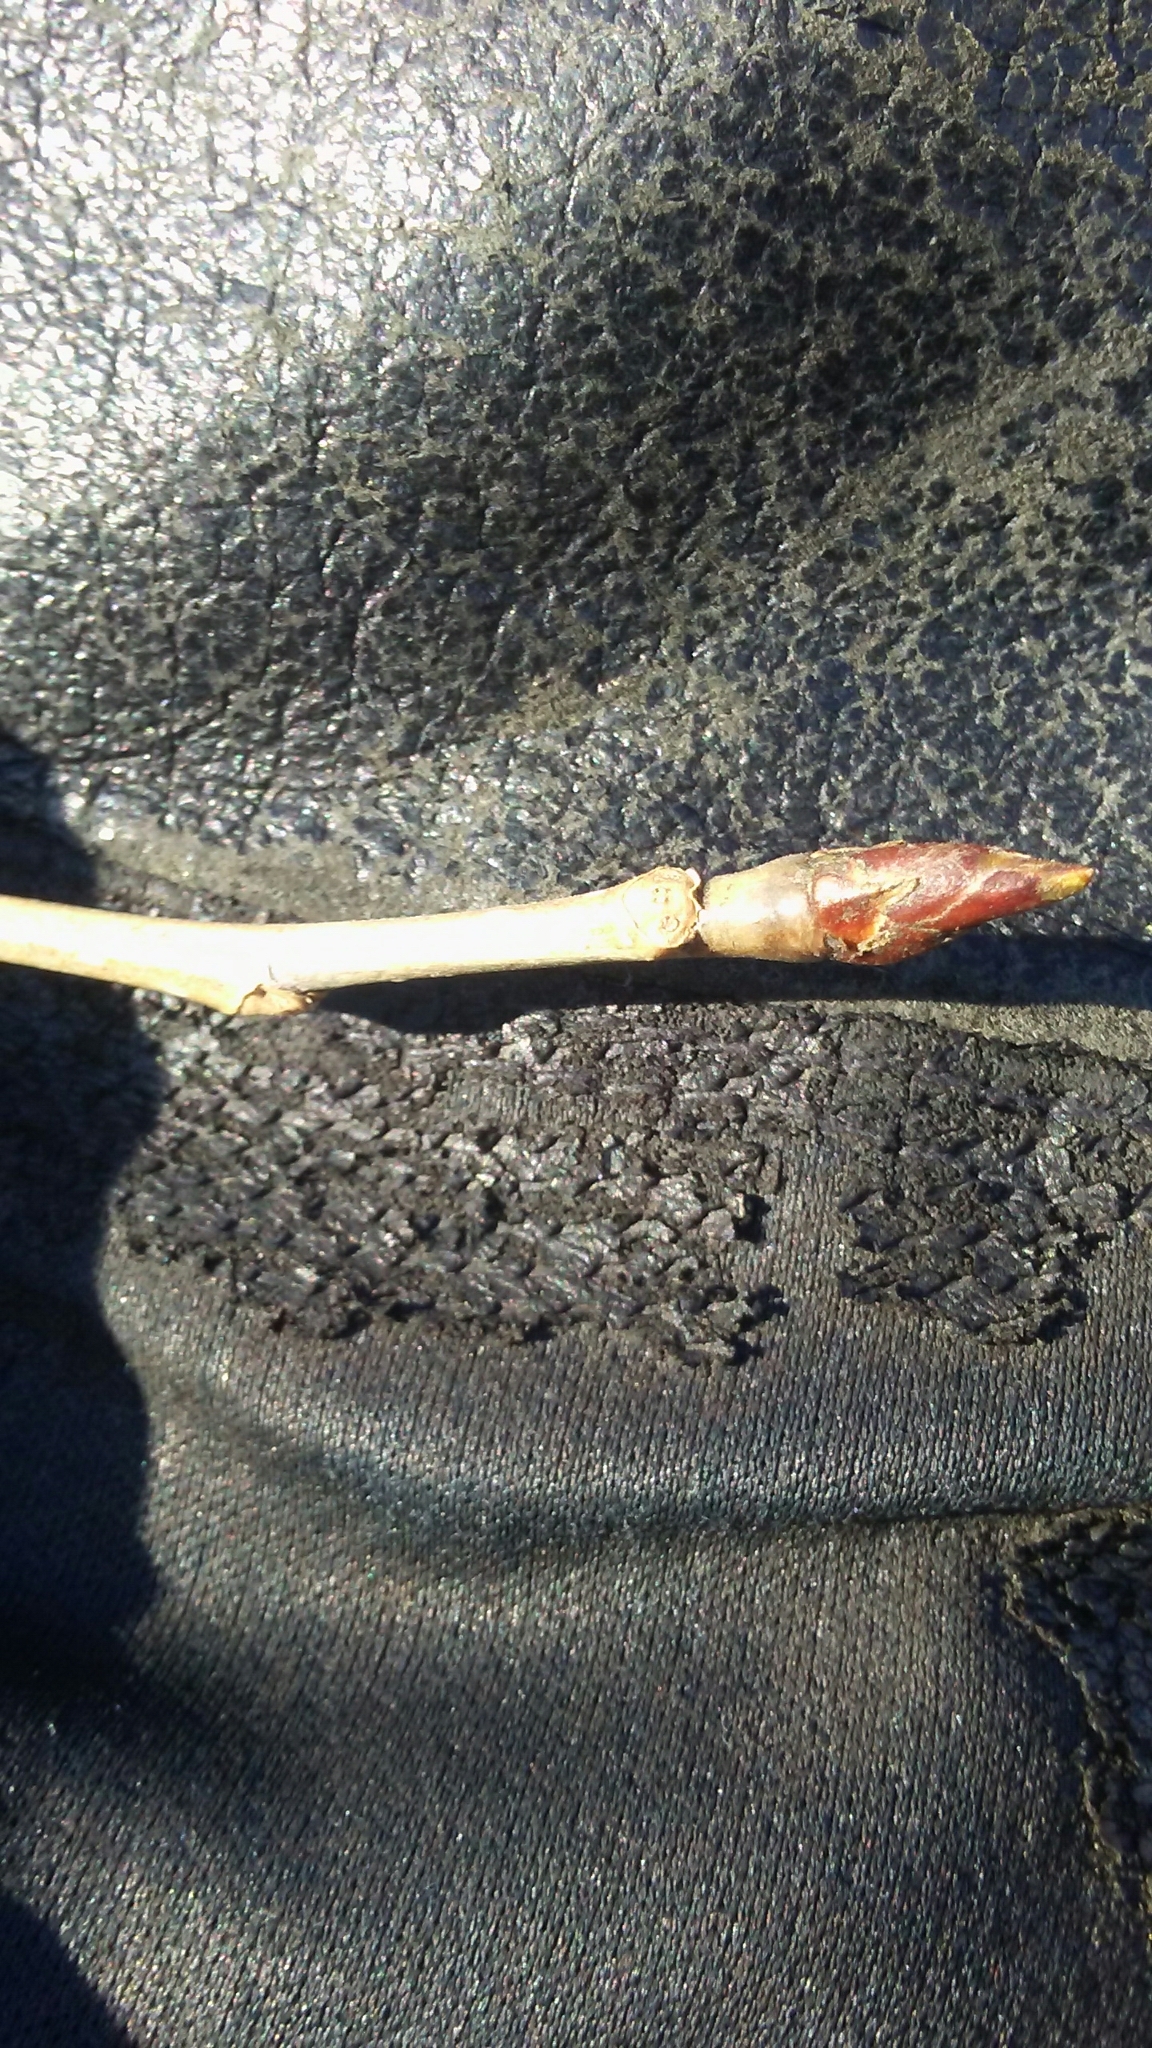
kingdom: Plantae
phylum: Tracheophyta
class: Magnoliopsida
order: Malpighiales
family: Salicaceae
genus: Populus
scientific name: Populus deltoides
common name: Eastern cottonwood
